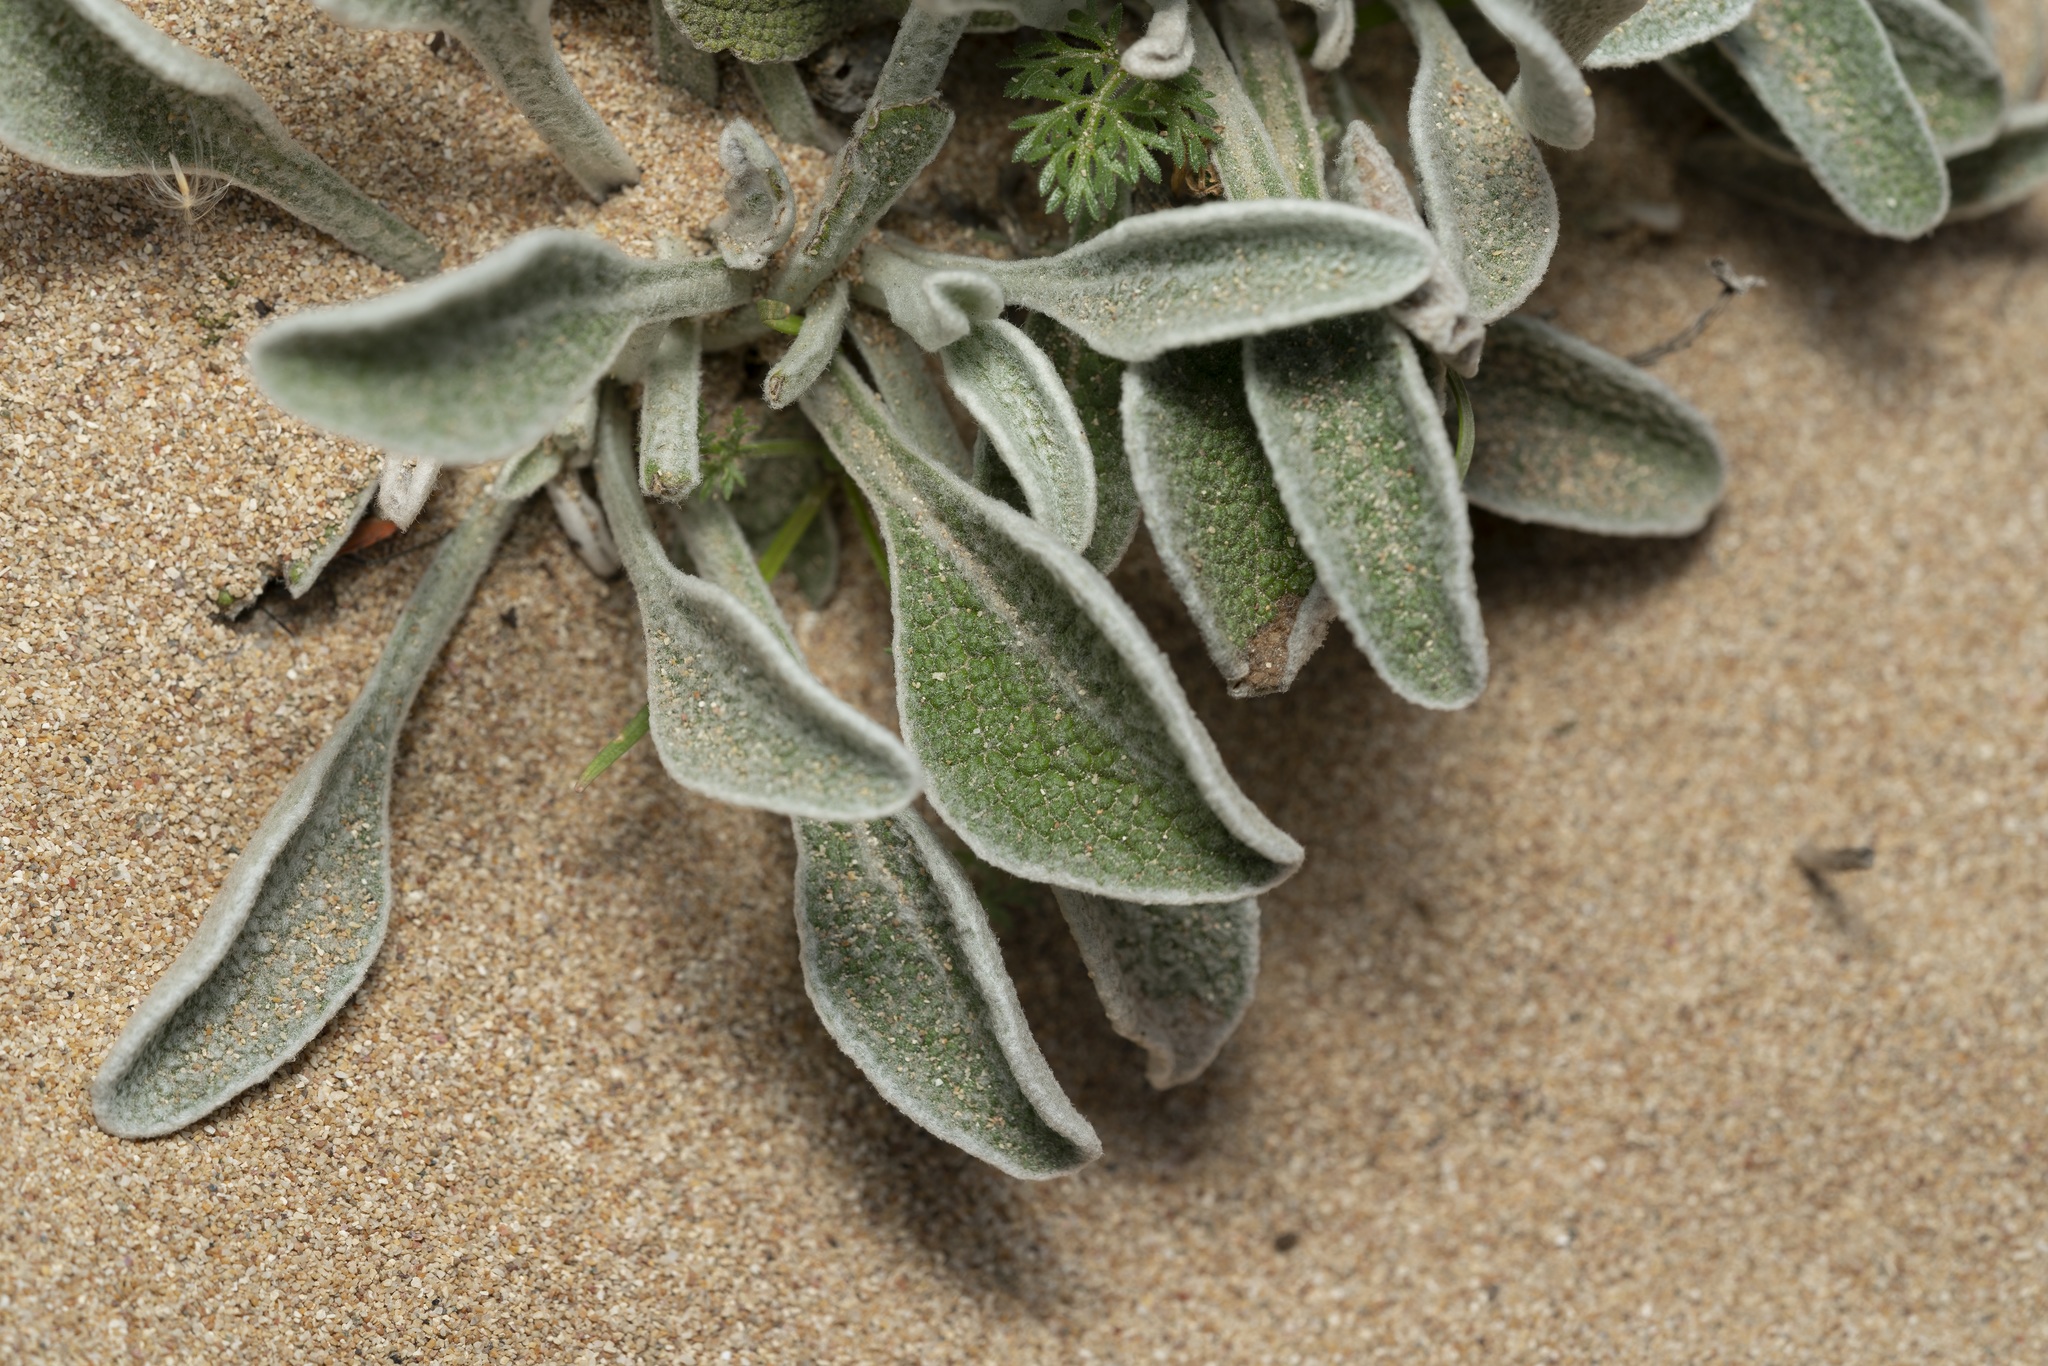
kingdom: Plantae
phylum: Tracheophyta
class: Magnoliopsida
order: Asterales
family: Asteraceae
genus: Pentanema
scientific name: Pentanema verbascifolium
